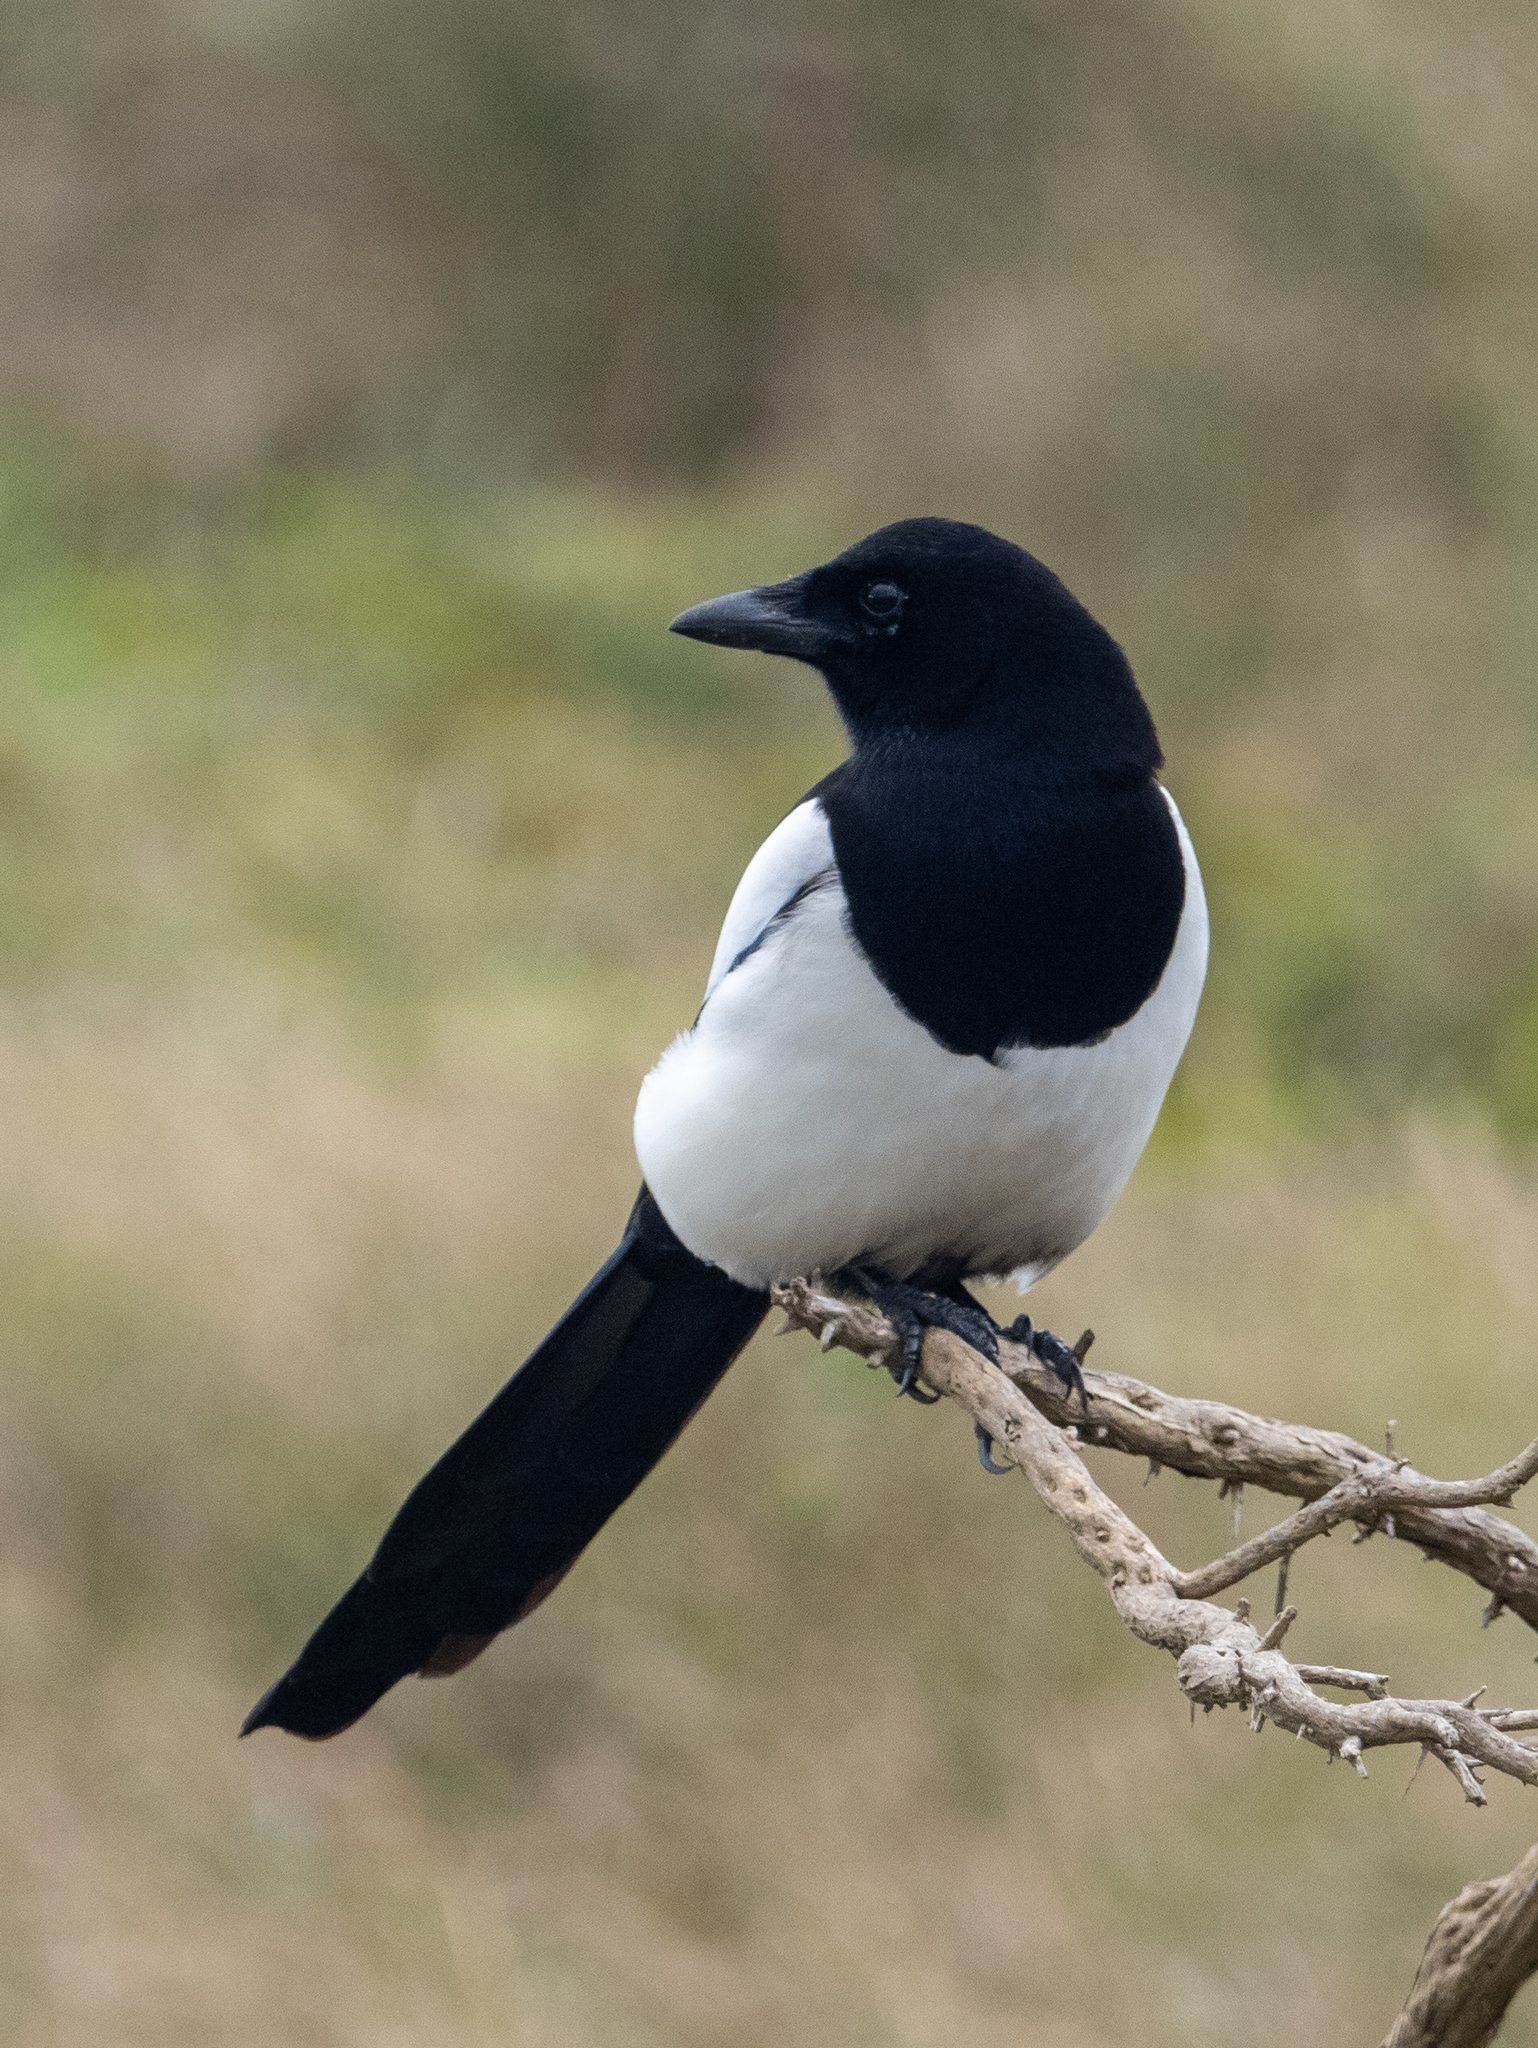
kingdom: Animalia
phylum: Chordata
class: Aves
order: Passeriformes
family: Corvidae
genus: Pica
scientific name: Pica pica
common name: Eurasian magpie
